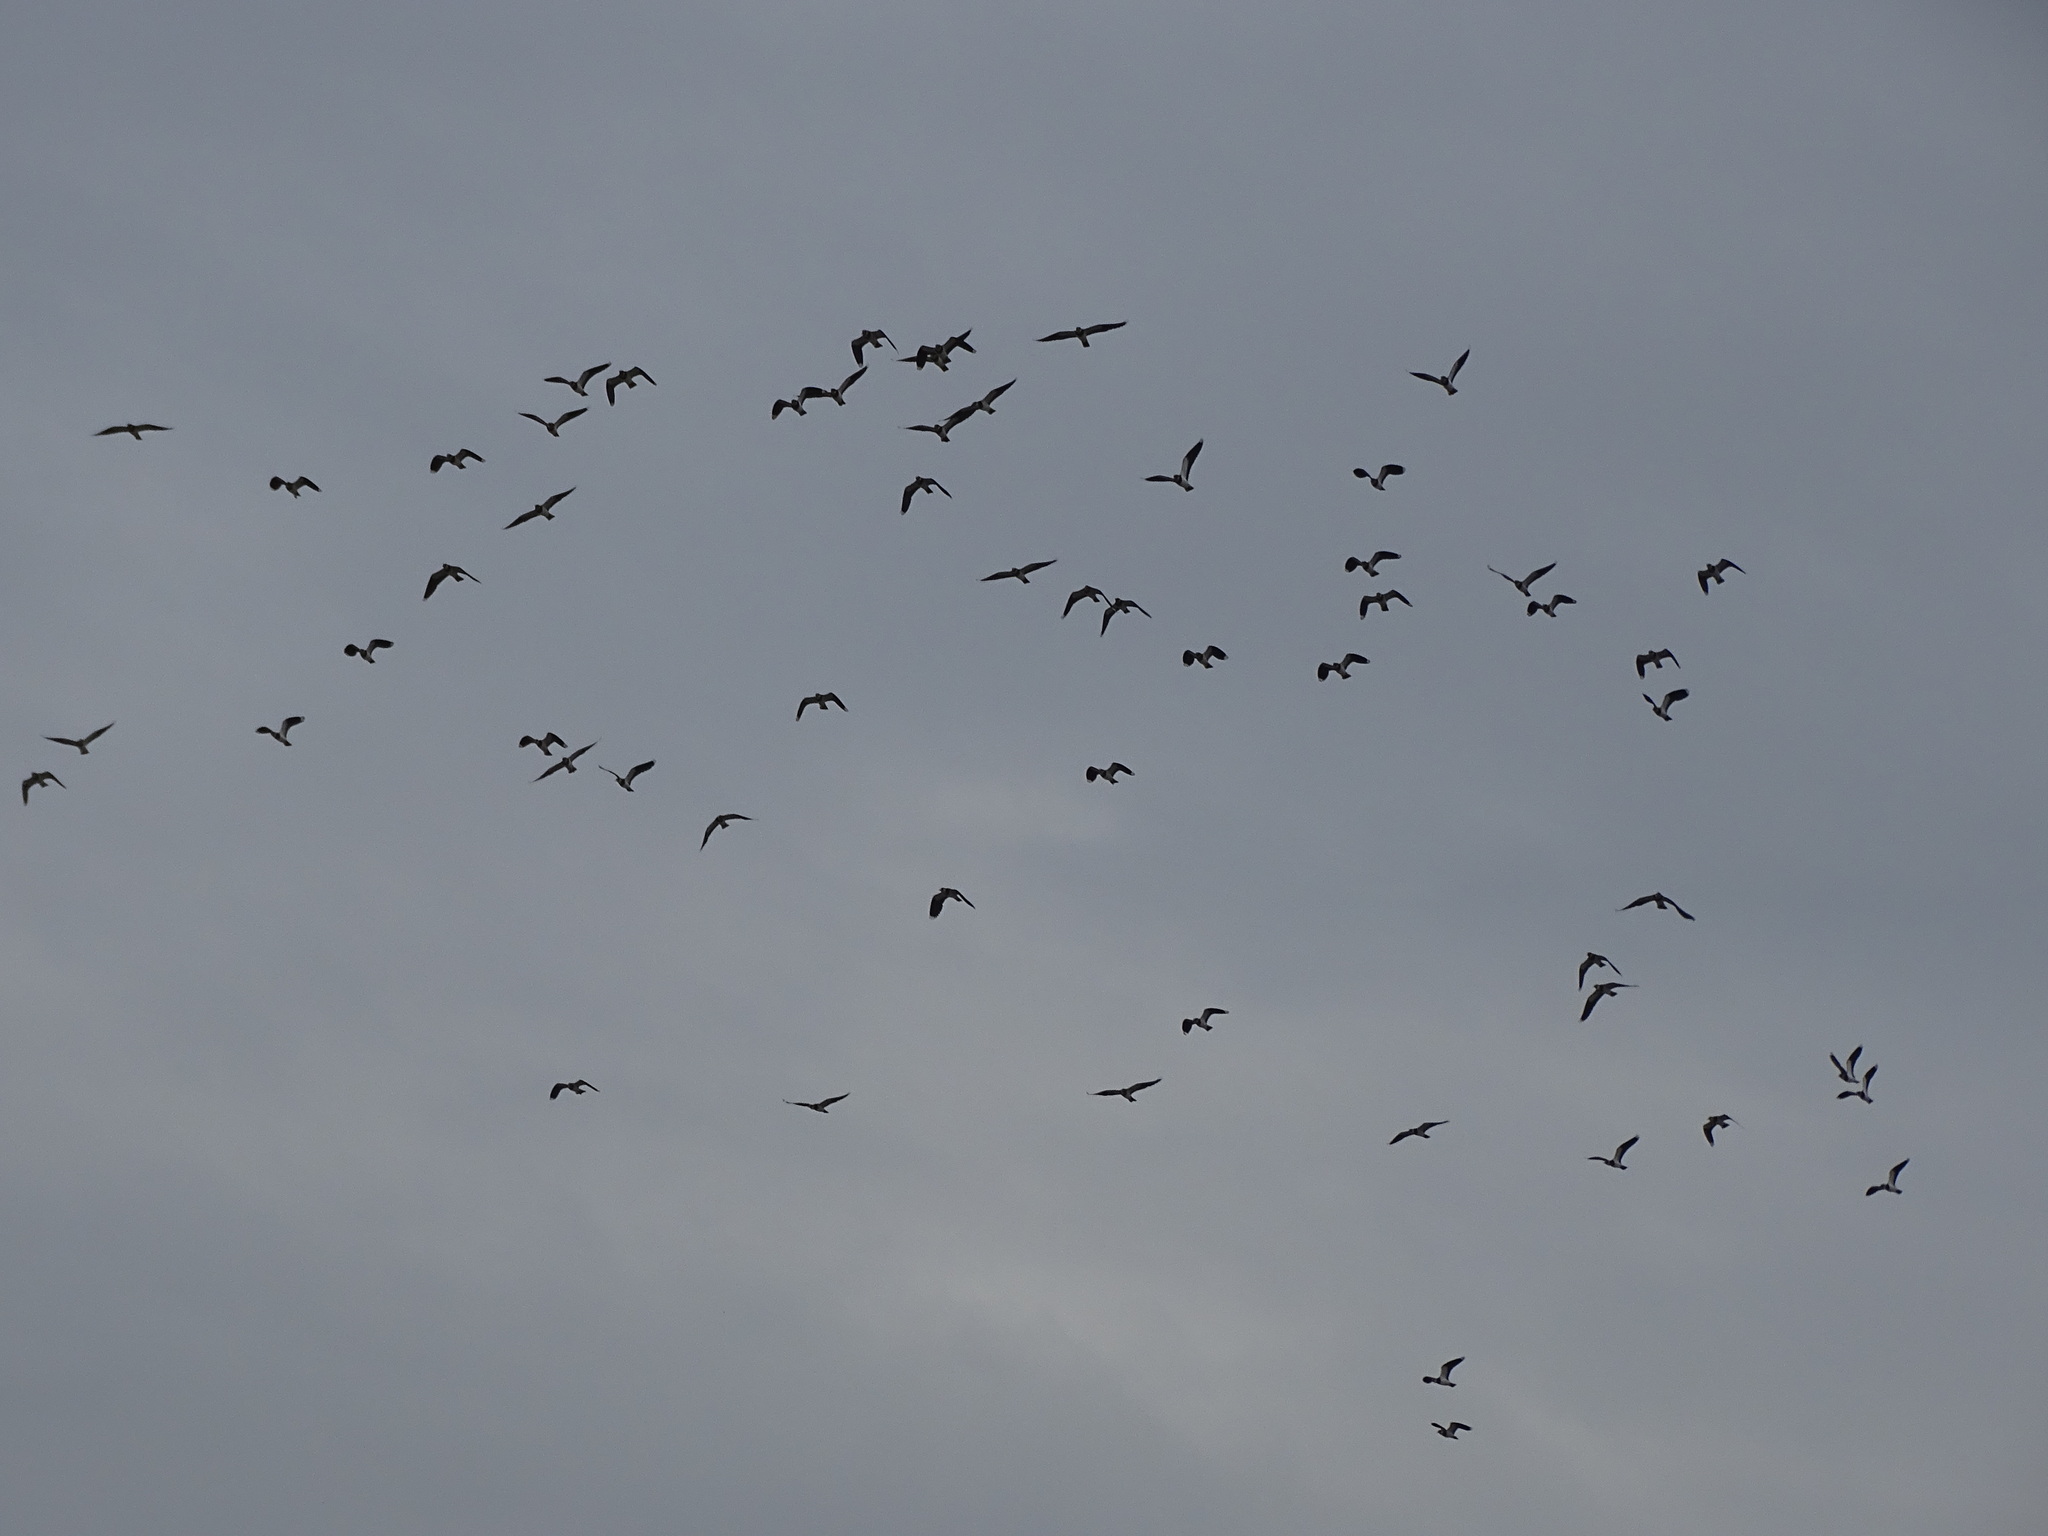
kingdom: Animalia
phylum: Chordata
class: Aves
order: Charadriiformes
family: Charadriidae
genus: Vanellus
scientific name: Vanellus vanellus
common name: Northern lapwing
